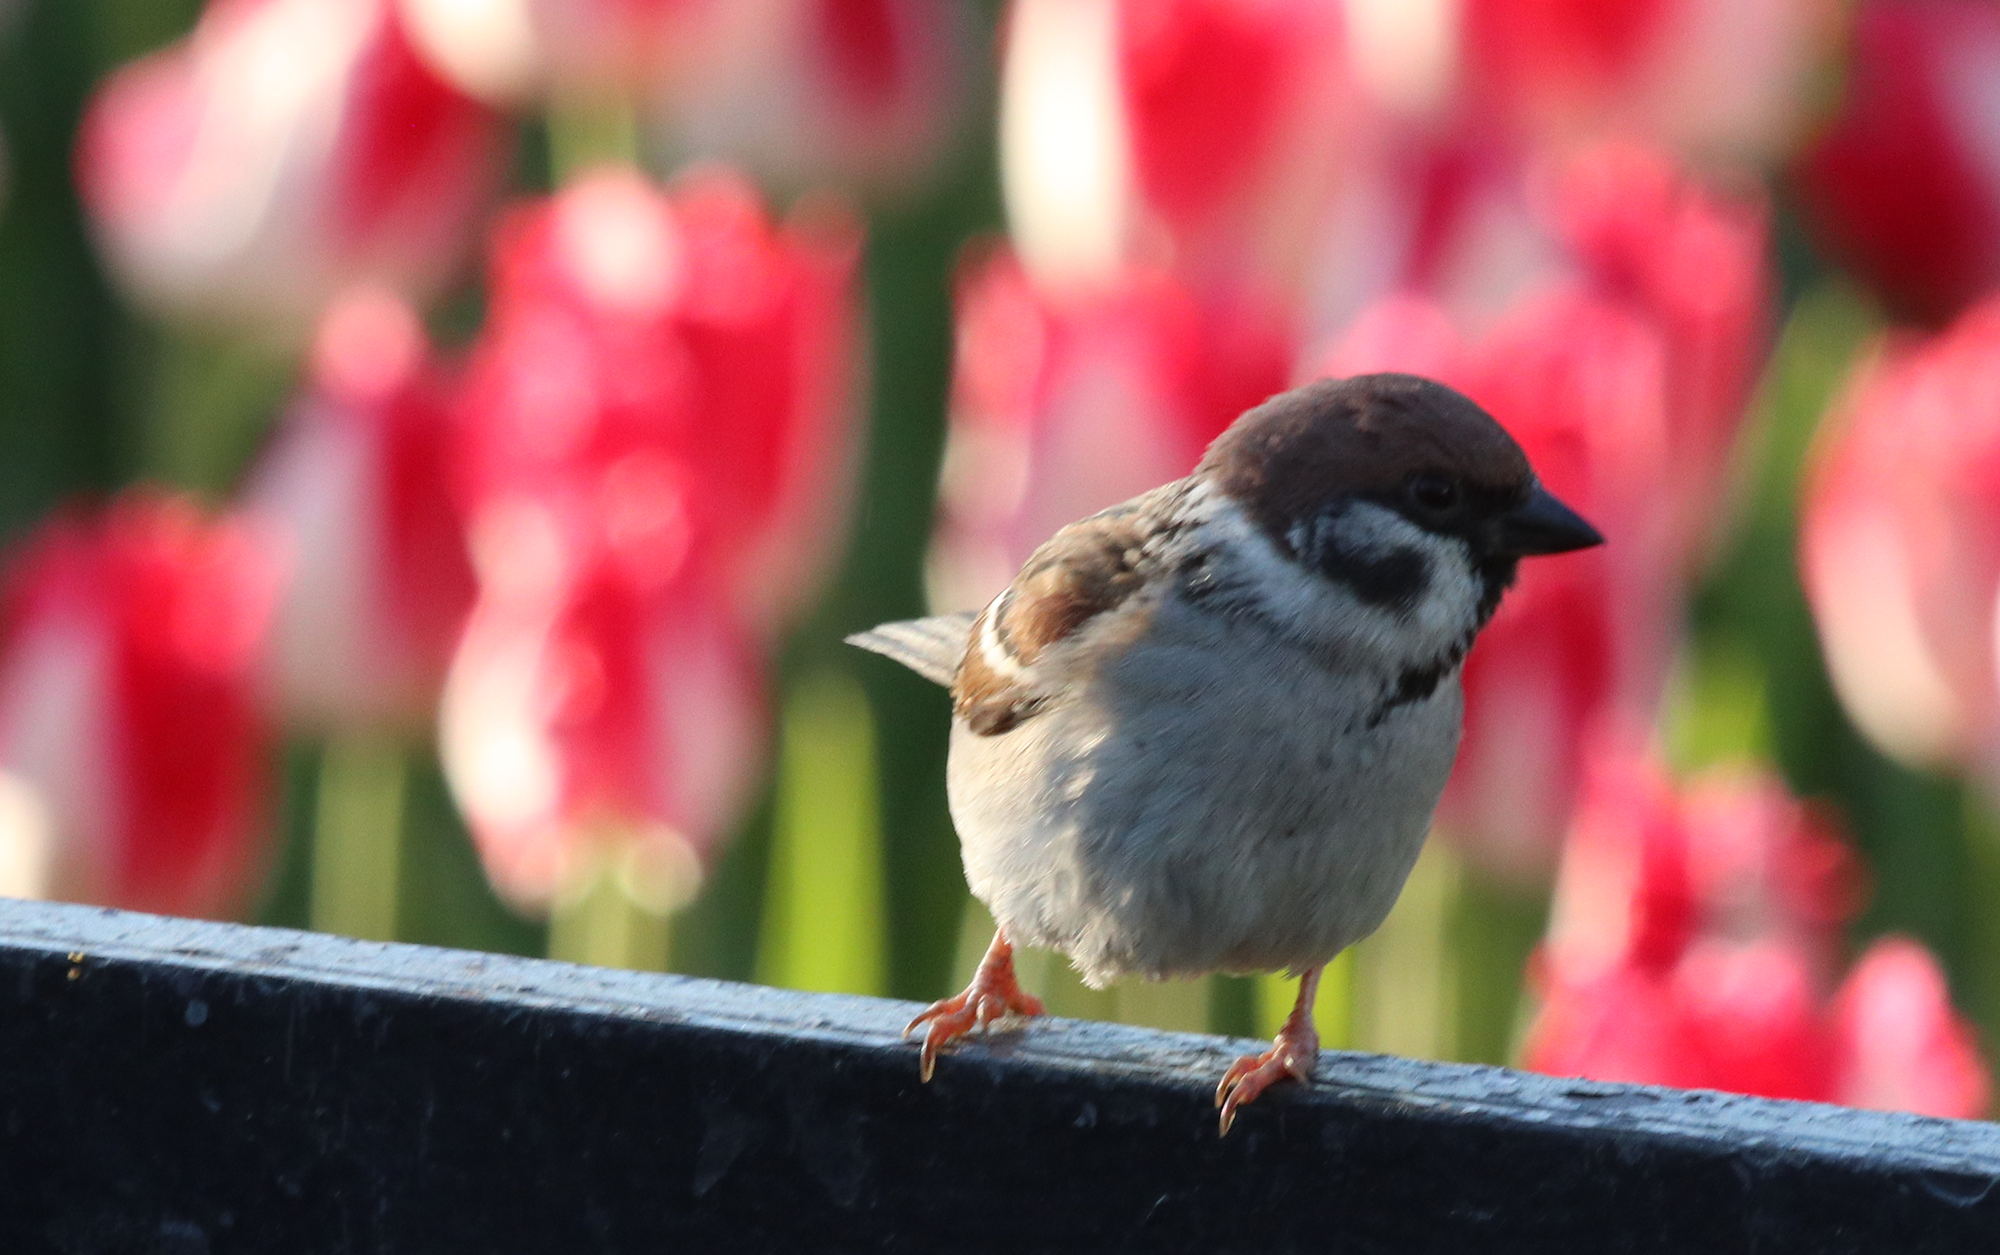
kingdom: Animalia
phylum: Chordata
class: Aves
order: Passeriformes
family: Passeridae
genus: Passer
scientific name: Passer montanus
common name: Eurasian tree sparrow
